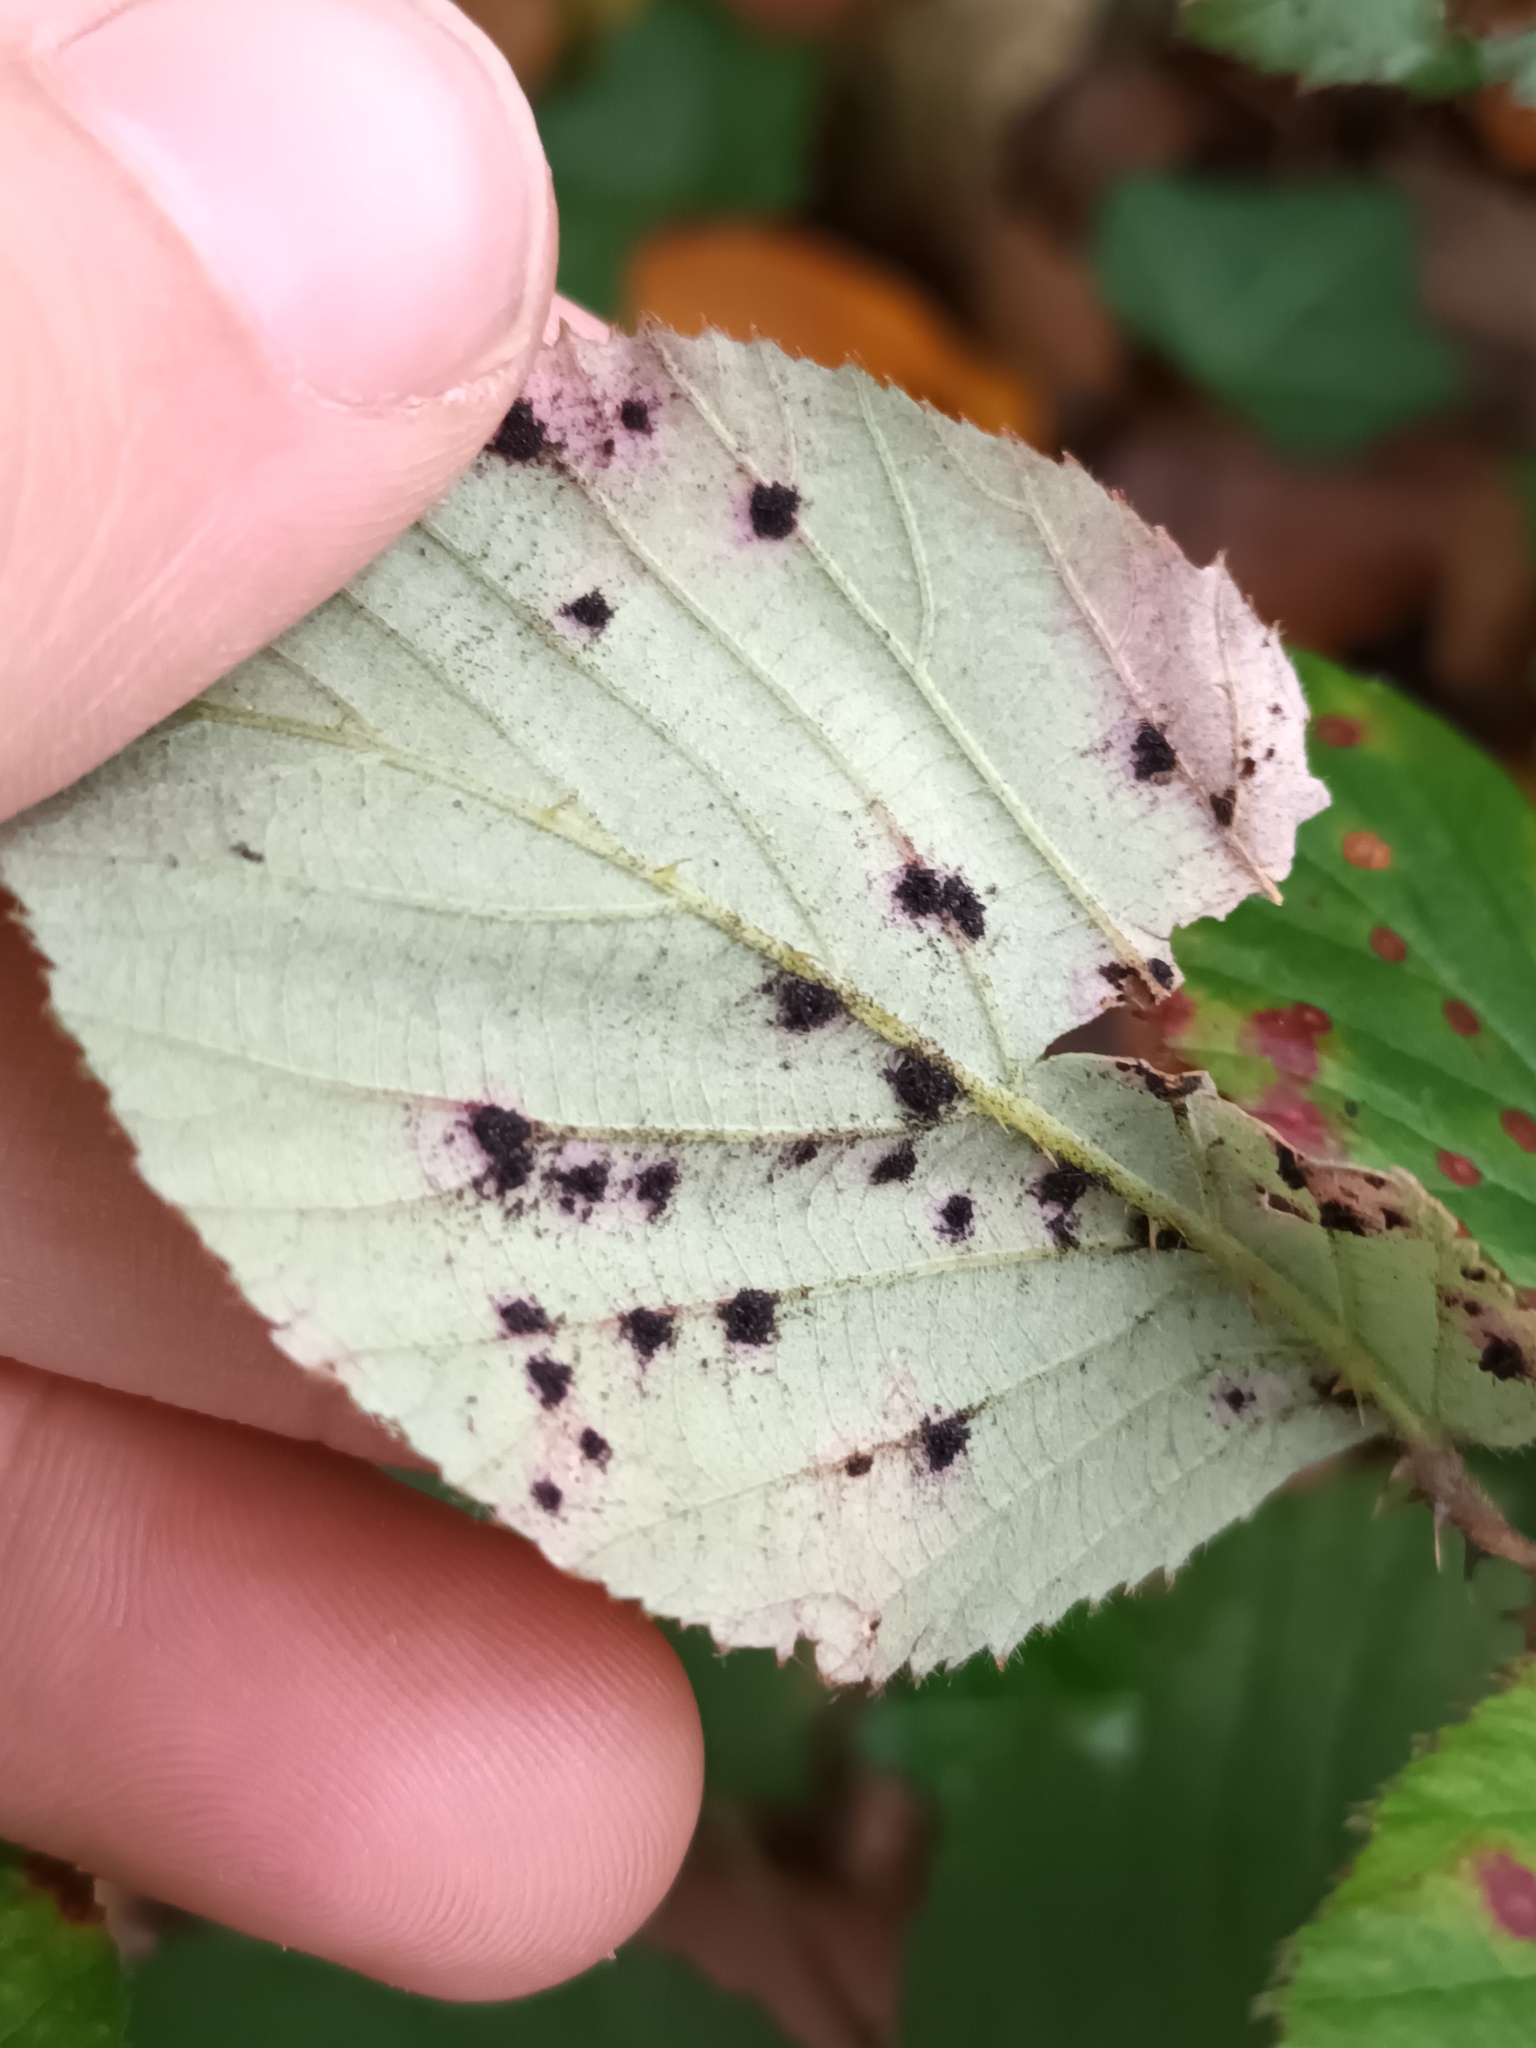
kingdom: Fungi
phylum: Basidiomycota
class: Pucciniomycetes
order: Pucciniales
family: Phragmidiaceae
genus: Phragmidium
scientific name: Phragmidium violaceum
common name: Violet bramble rust
